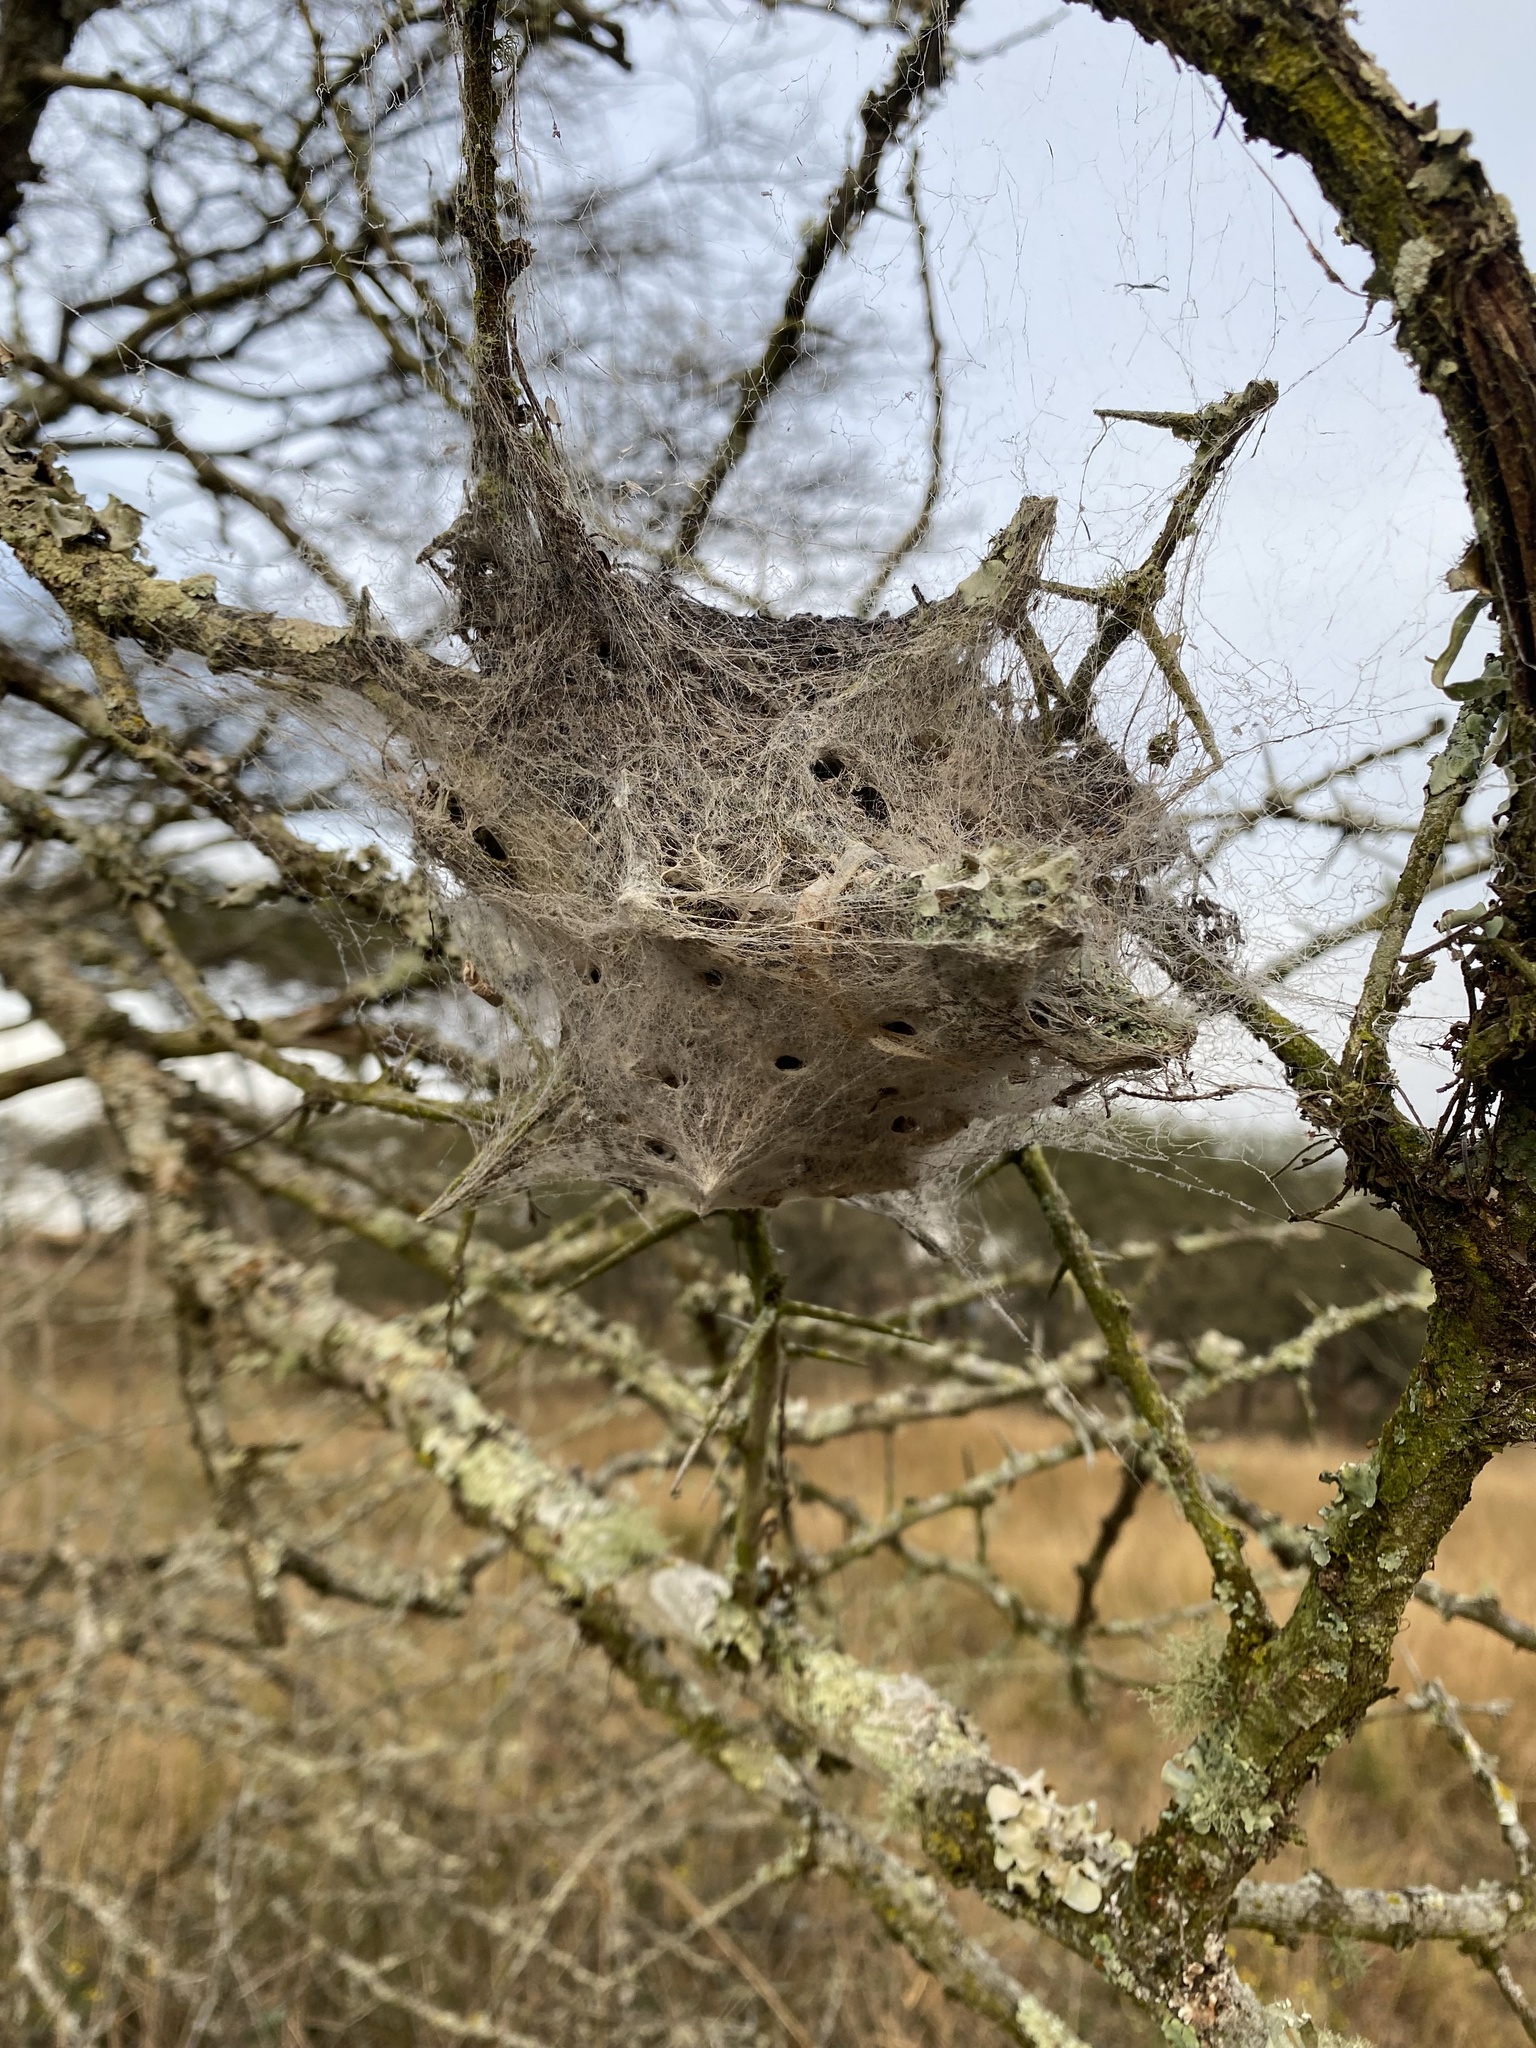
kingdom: Animalia
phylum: Arthropoda
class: Arachnida
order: Araneae
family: Eresidae
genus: Stegodyphus
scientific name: Stegodyphus dumicola
